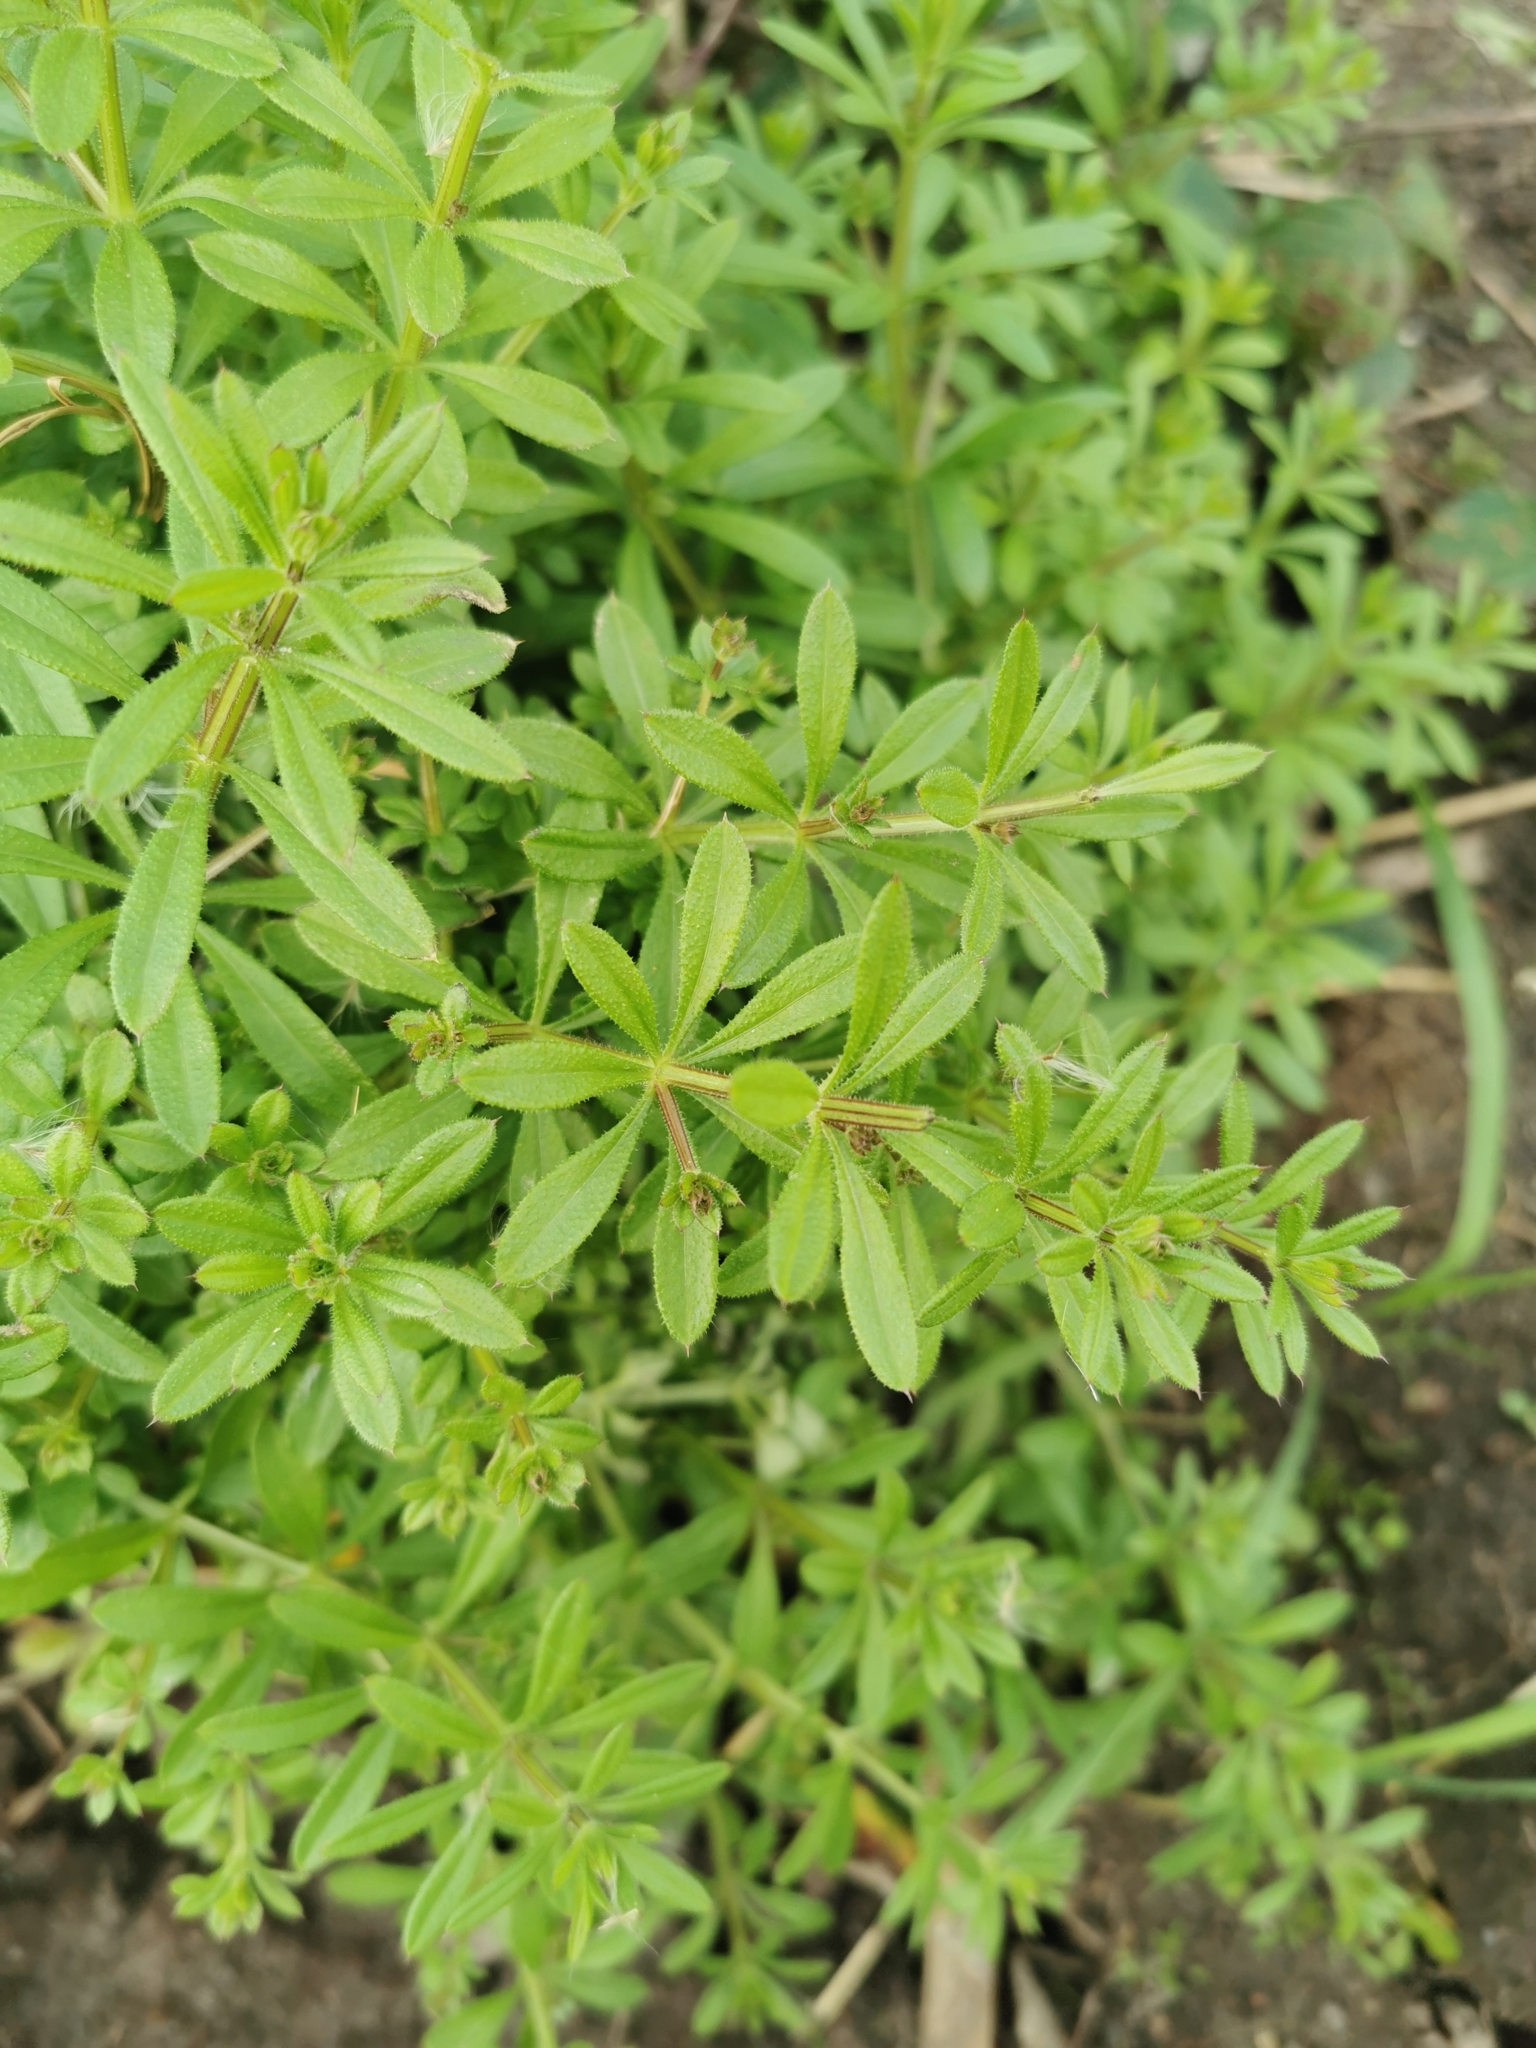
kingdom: Plantae
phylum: Tracheophyta
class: Magnoliopsida
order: Gentianales
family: Rubiaceae
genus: Galium
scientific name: Galium aparine
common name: Cleavers
